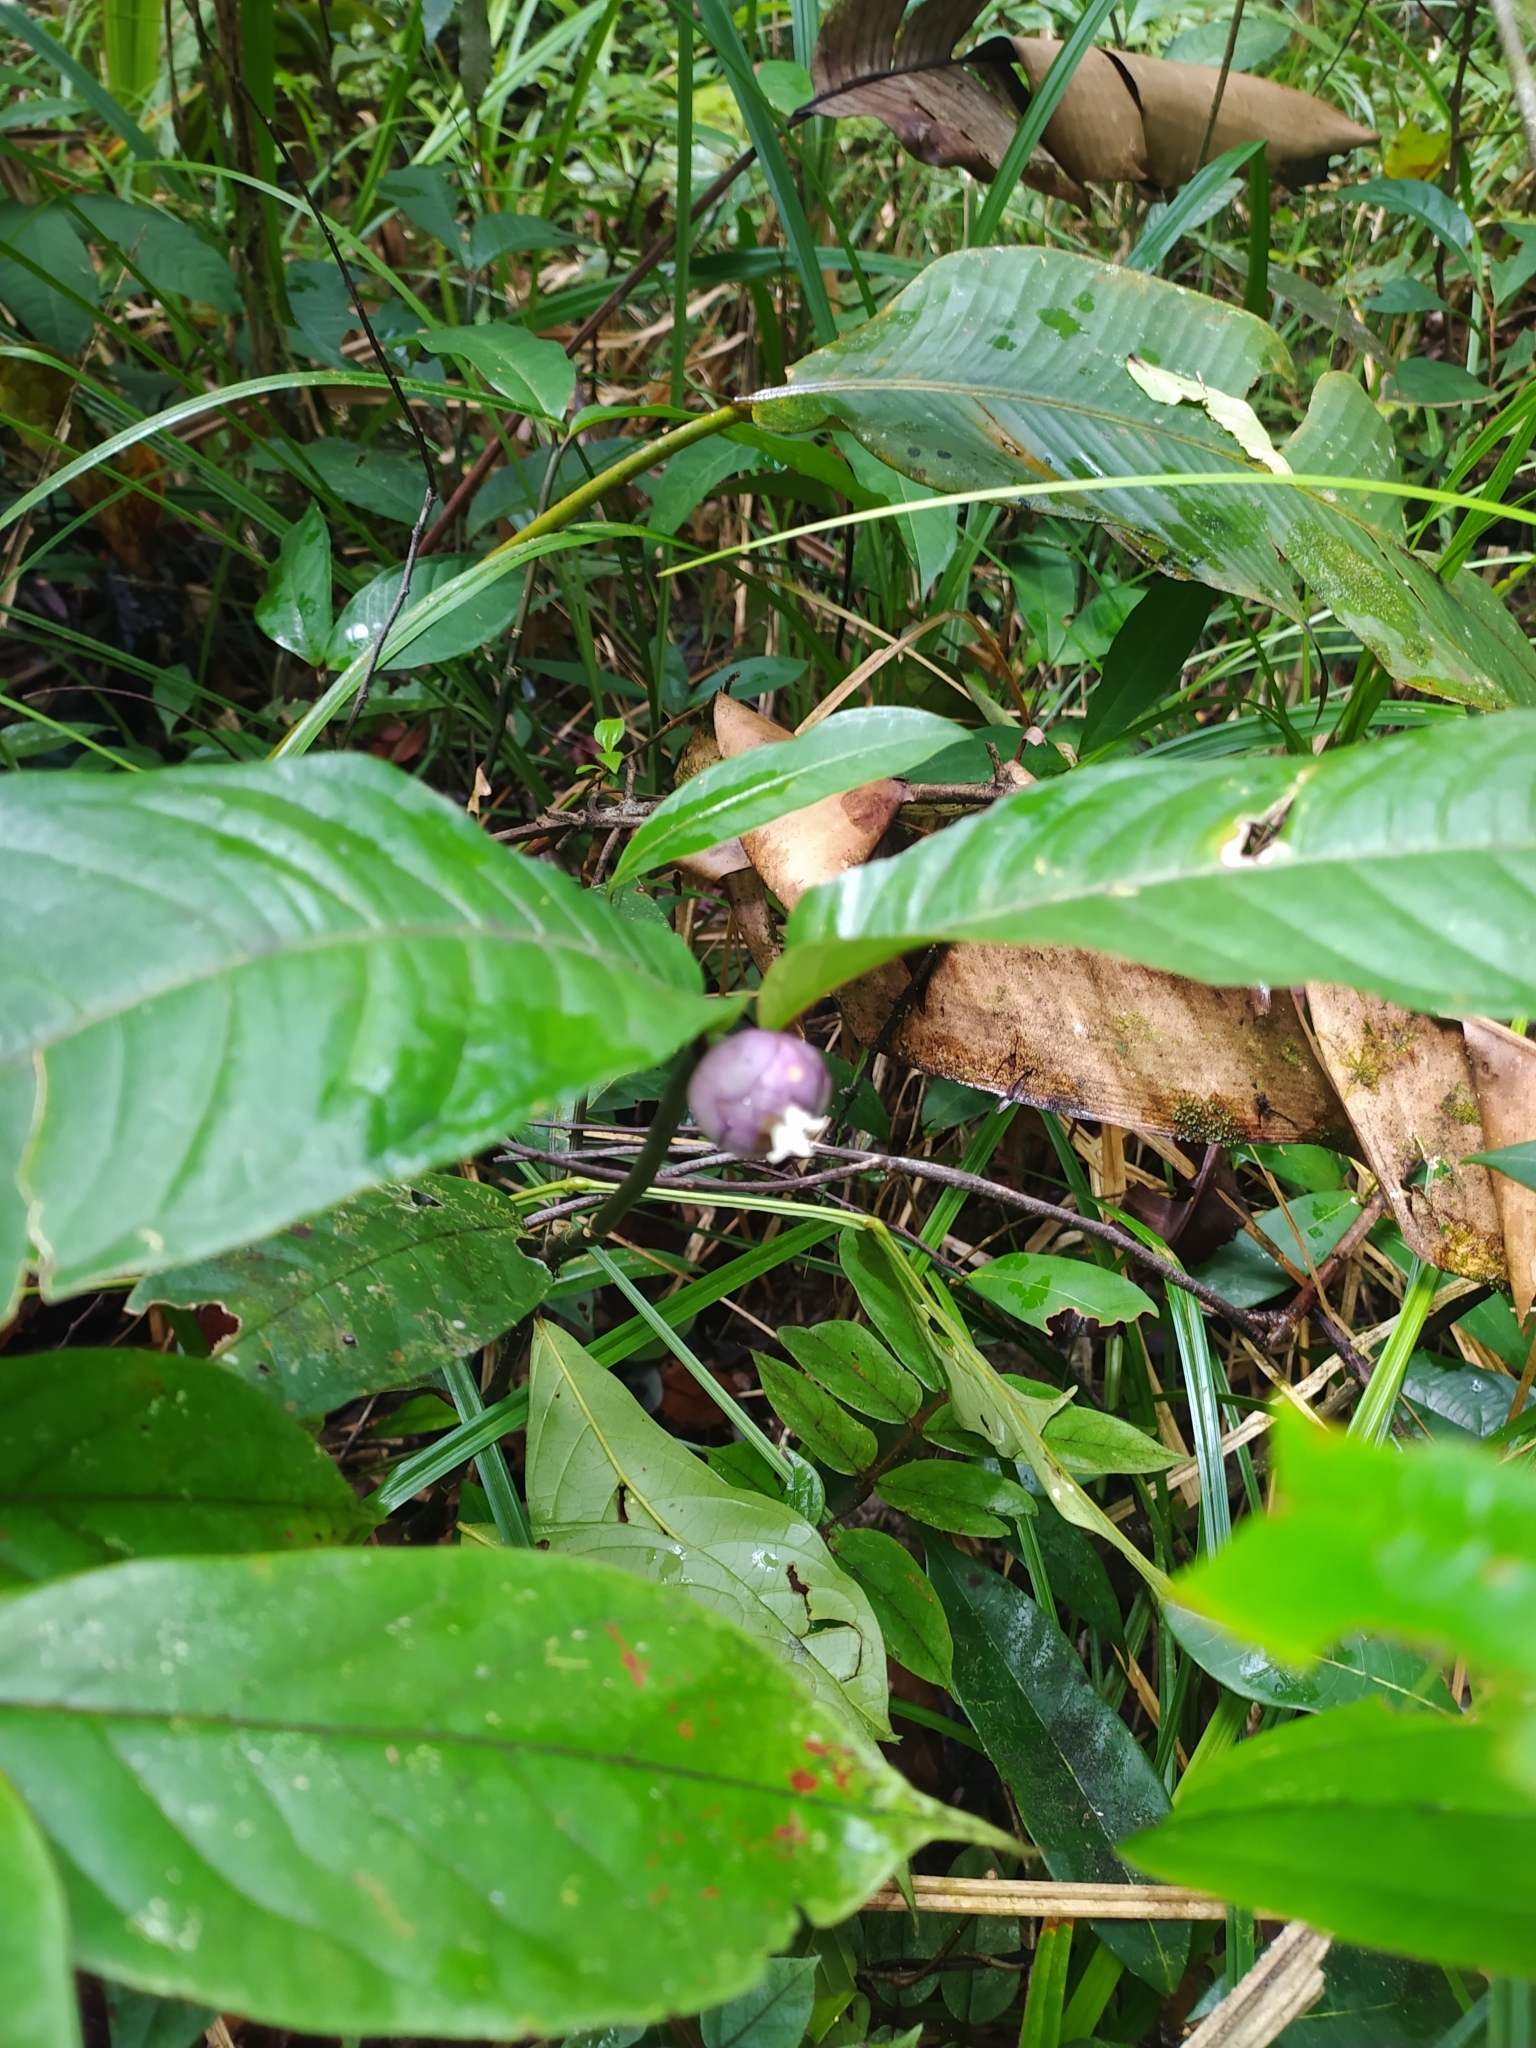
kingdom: Plantae
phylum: Tracheophyta
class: Magnoliopsida
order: Gentianales
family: Rubiaceae
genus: Palicourea
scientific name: Palicourea apoda
